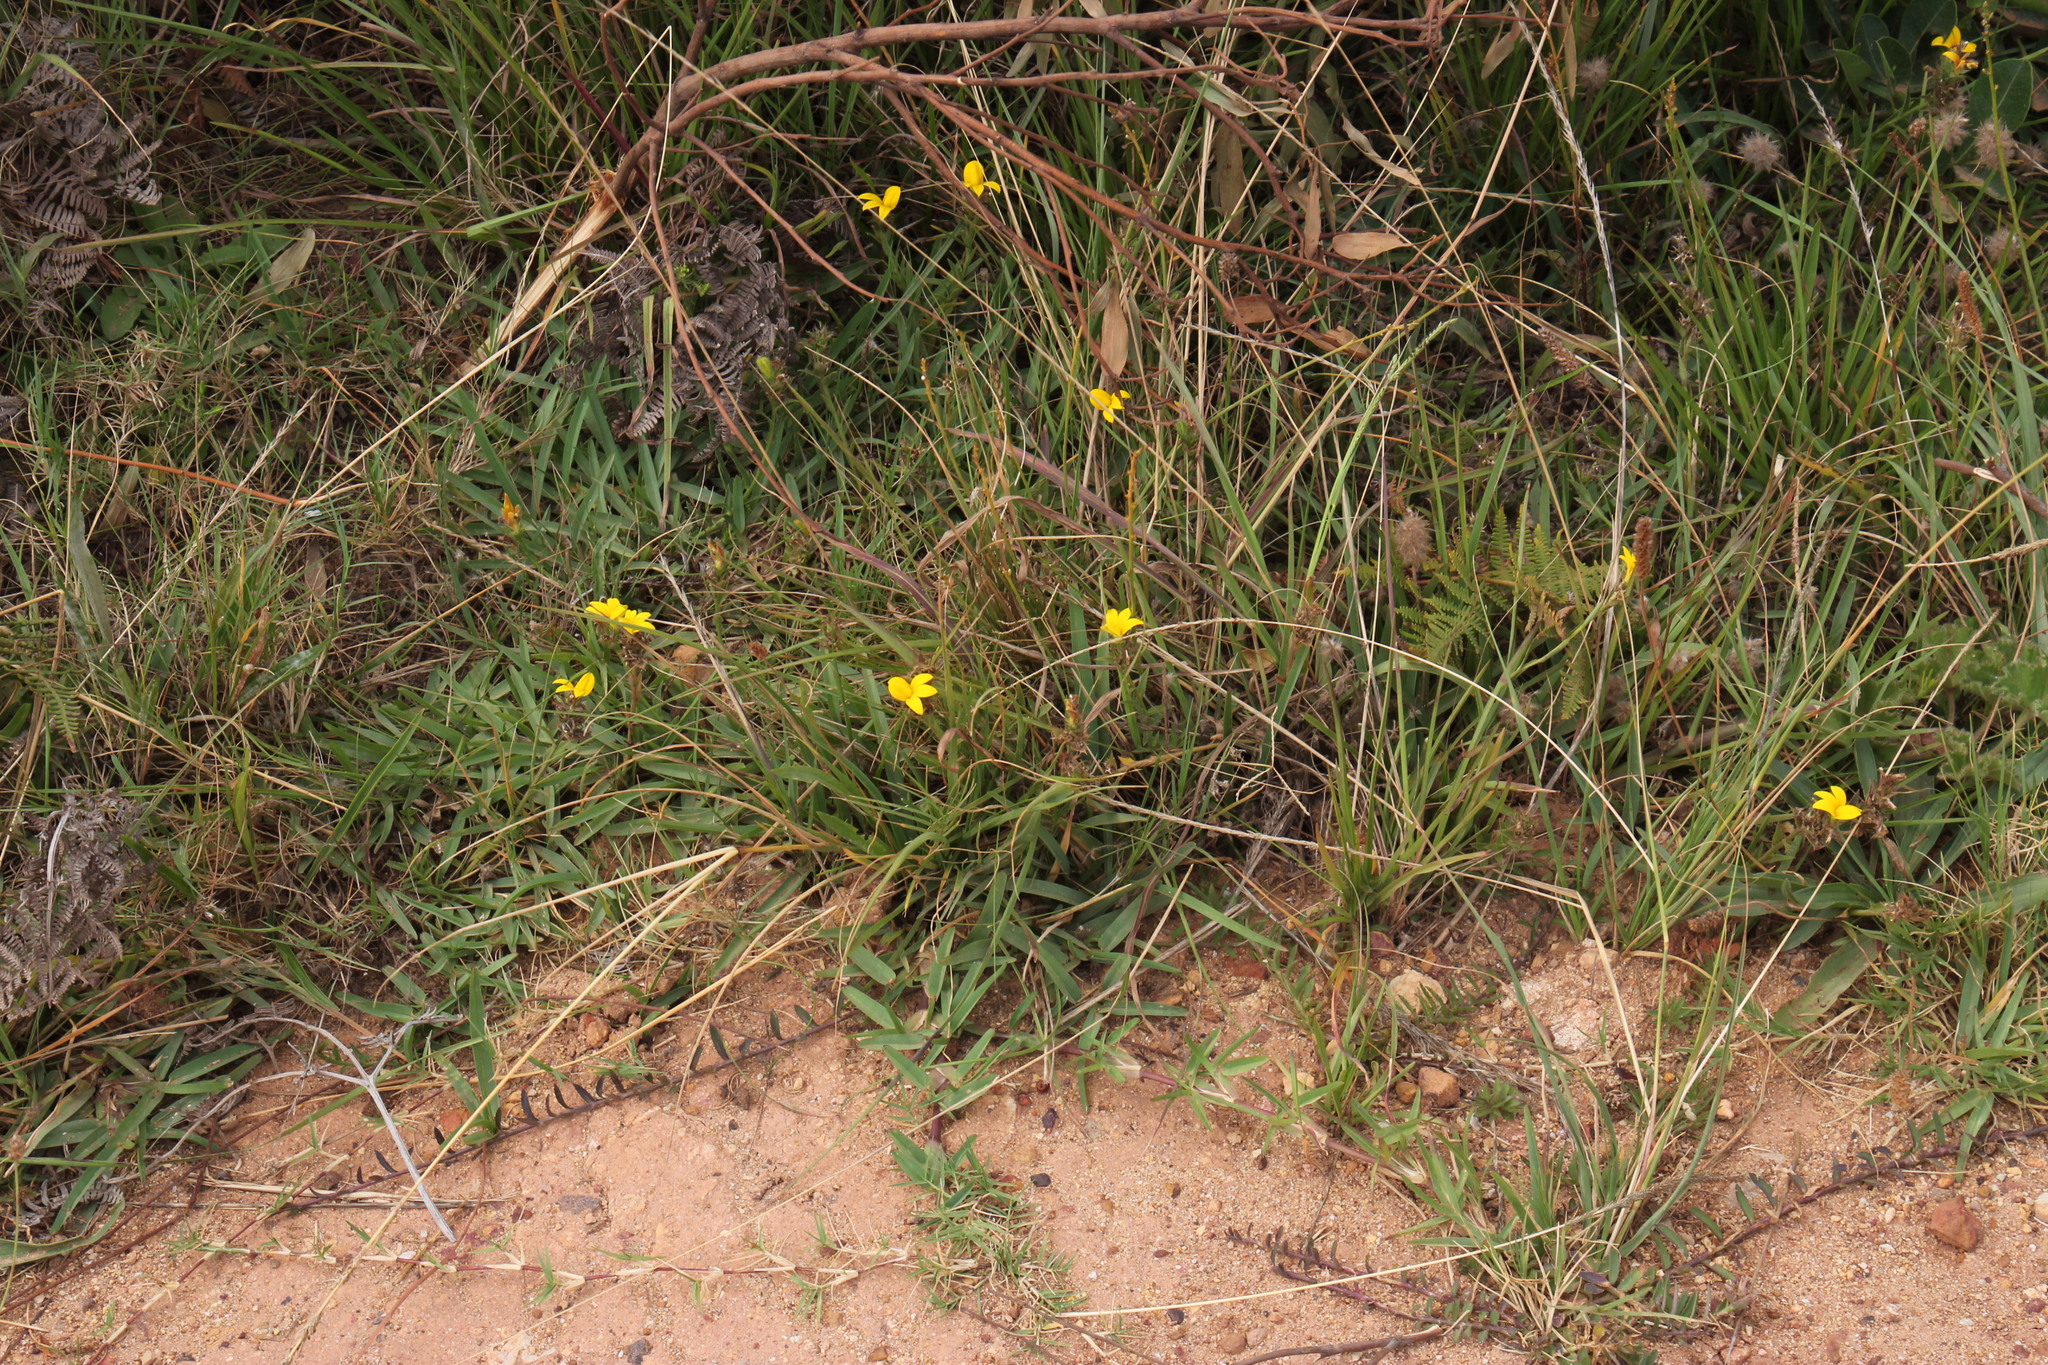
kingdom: Plantae
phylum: Tracheophyta
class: Magnoliopsida
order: Asterales
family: Campanulaceae
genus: Monopsis
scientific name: Monopsis lutea
